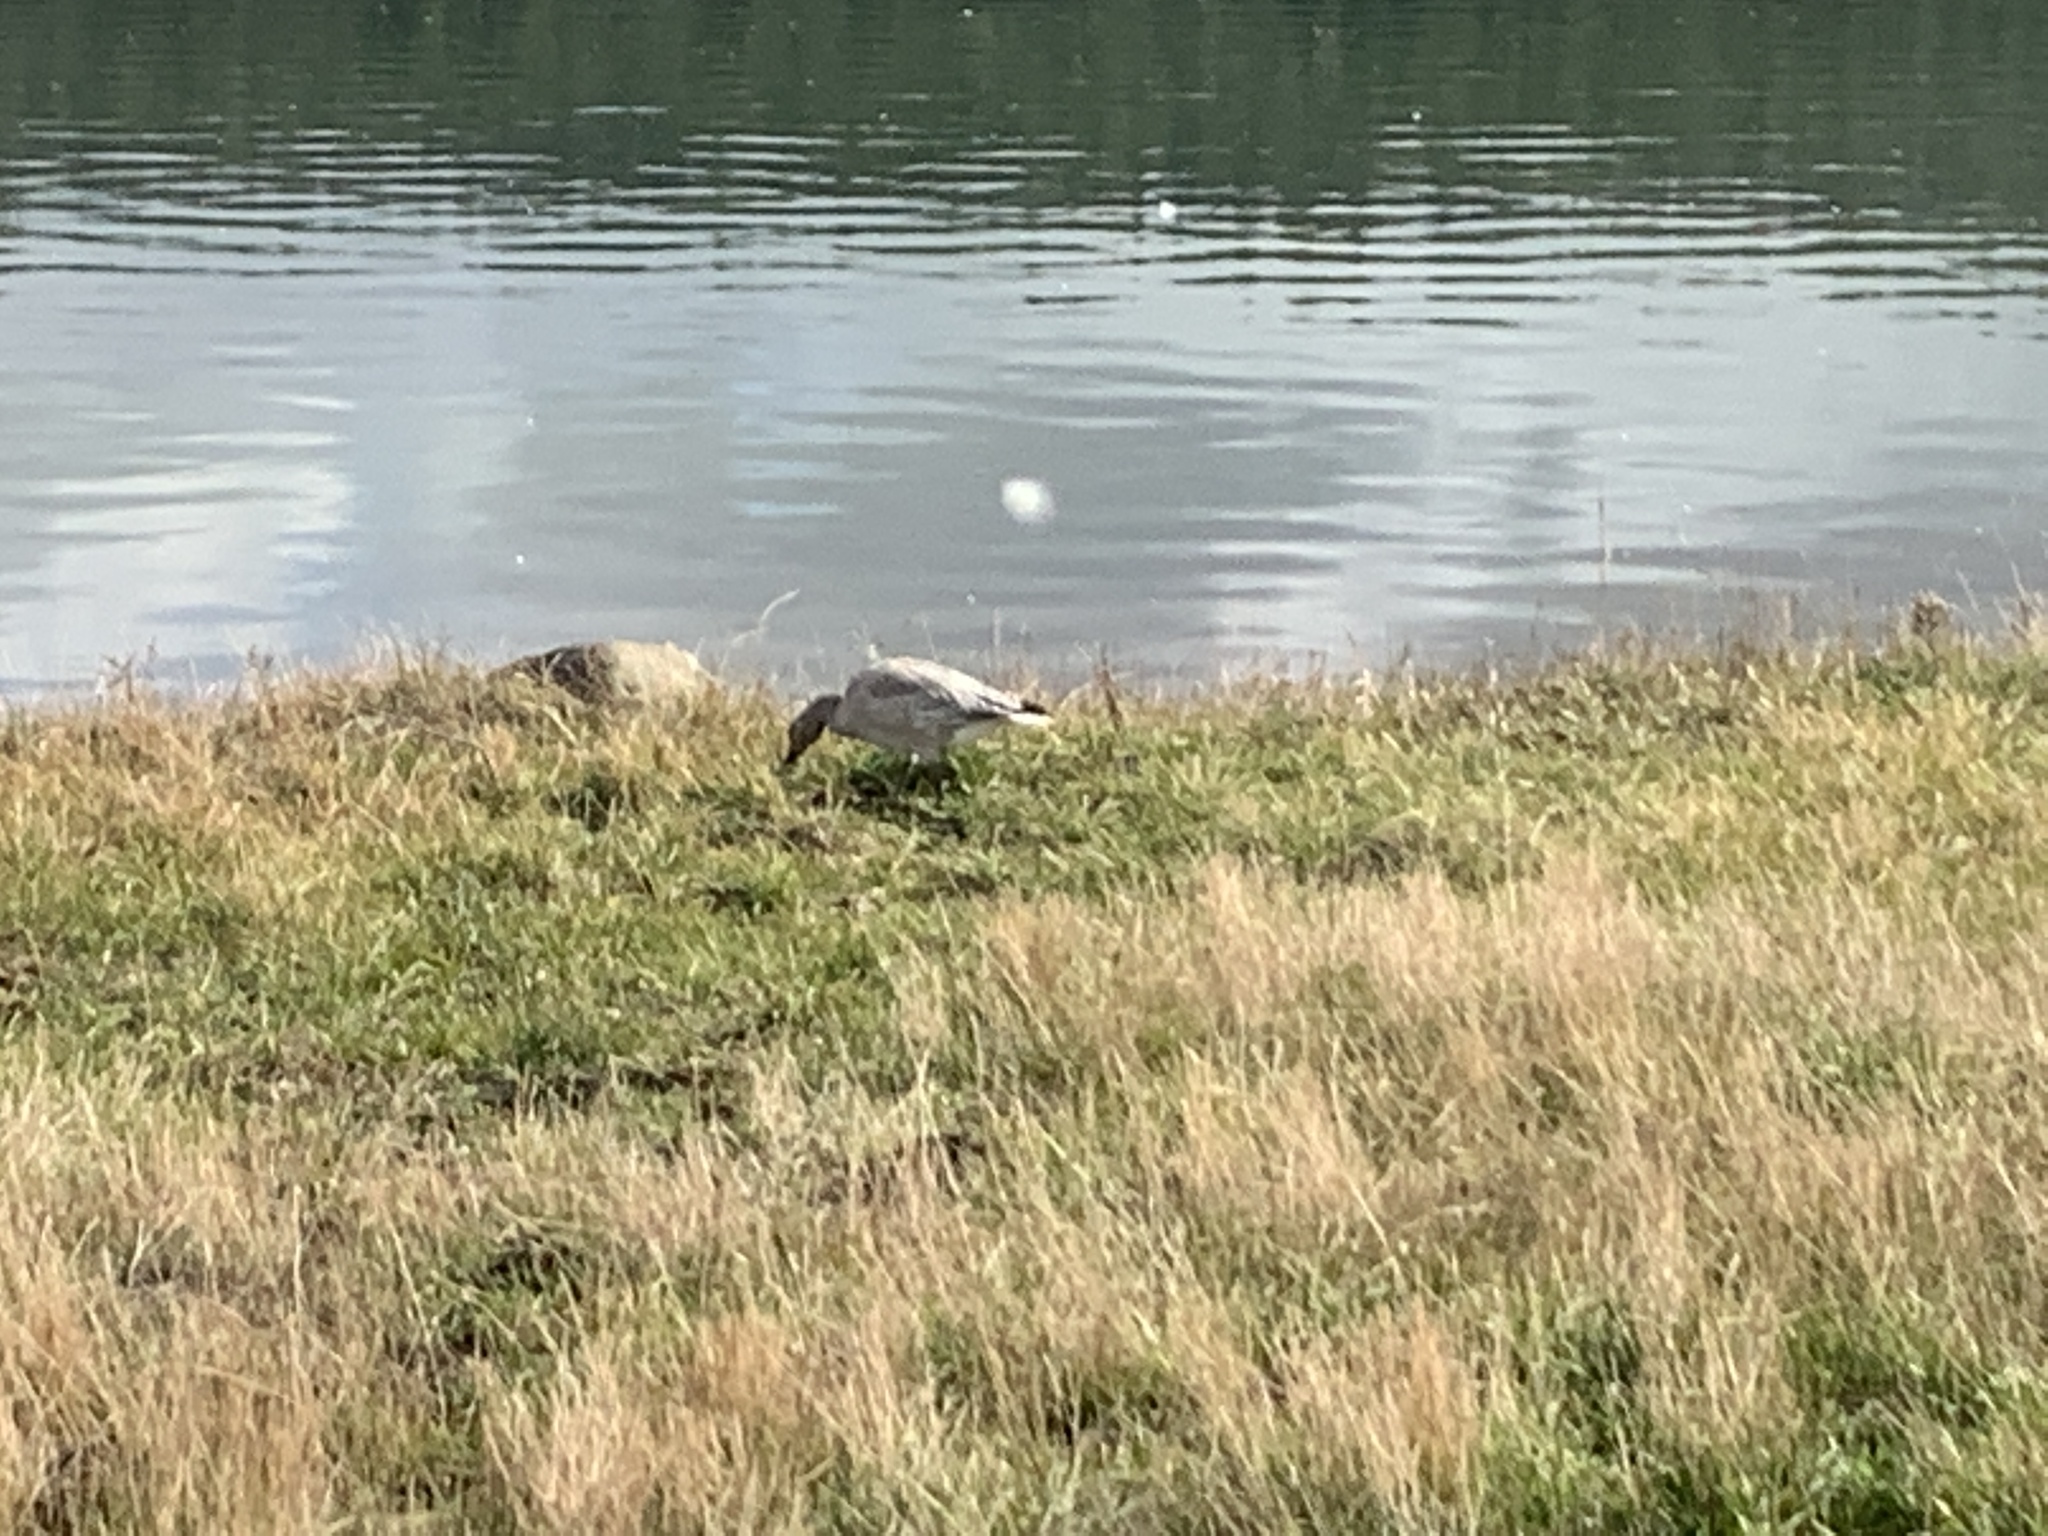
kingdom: Animalia
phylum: Chordata
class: Aves
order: Anseriformes
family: Anatidae
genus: Anser
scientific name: Anser caerulescens
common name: Snow goose
